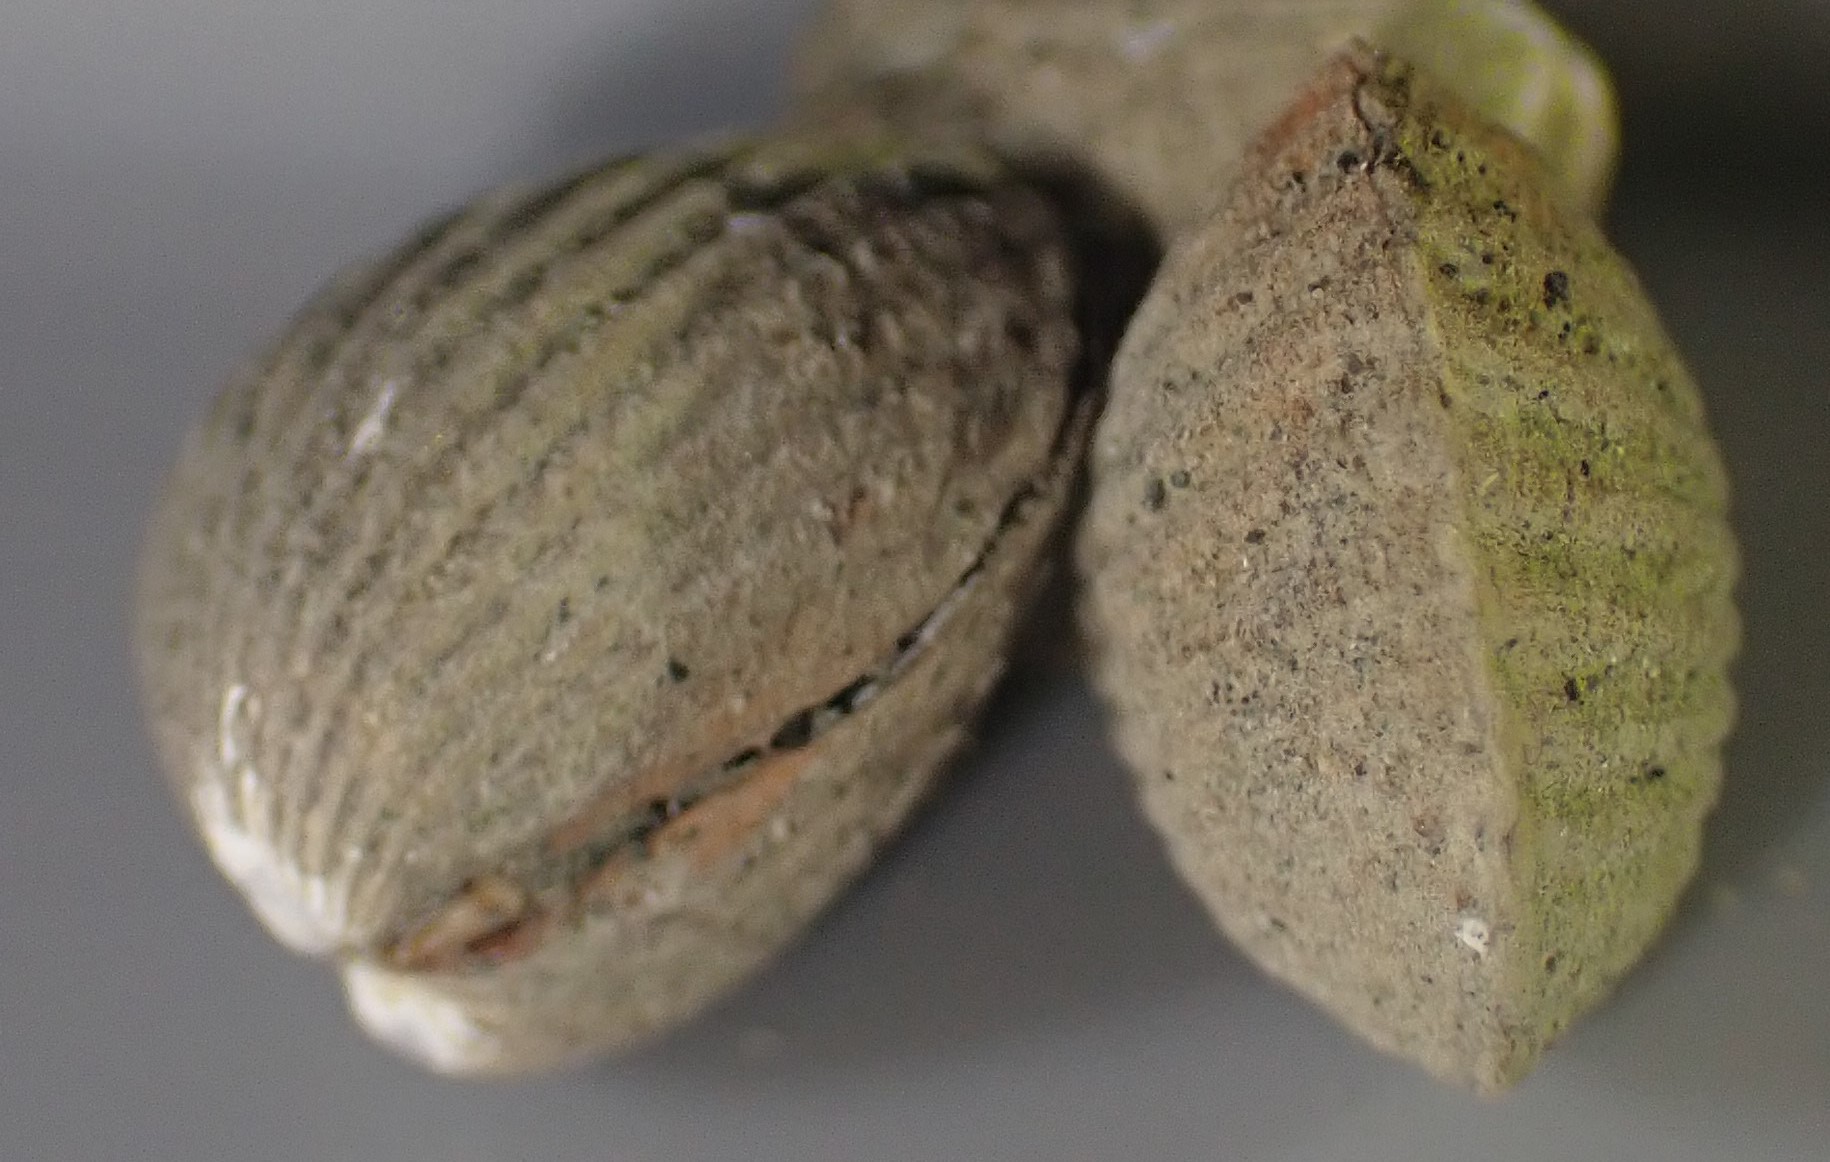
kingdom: Animalia
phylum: Mollusca
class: Bivalvia
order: Carditida
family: Carditidae
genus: Pleuromeris
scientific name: Pleuromeris zelandica
